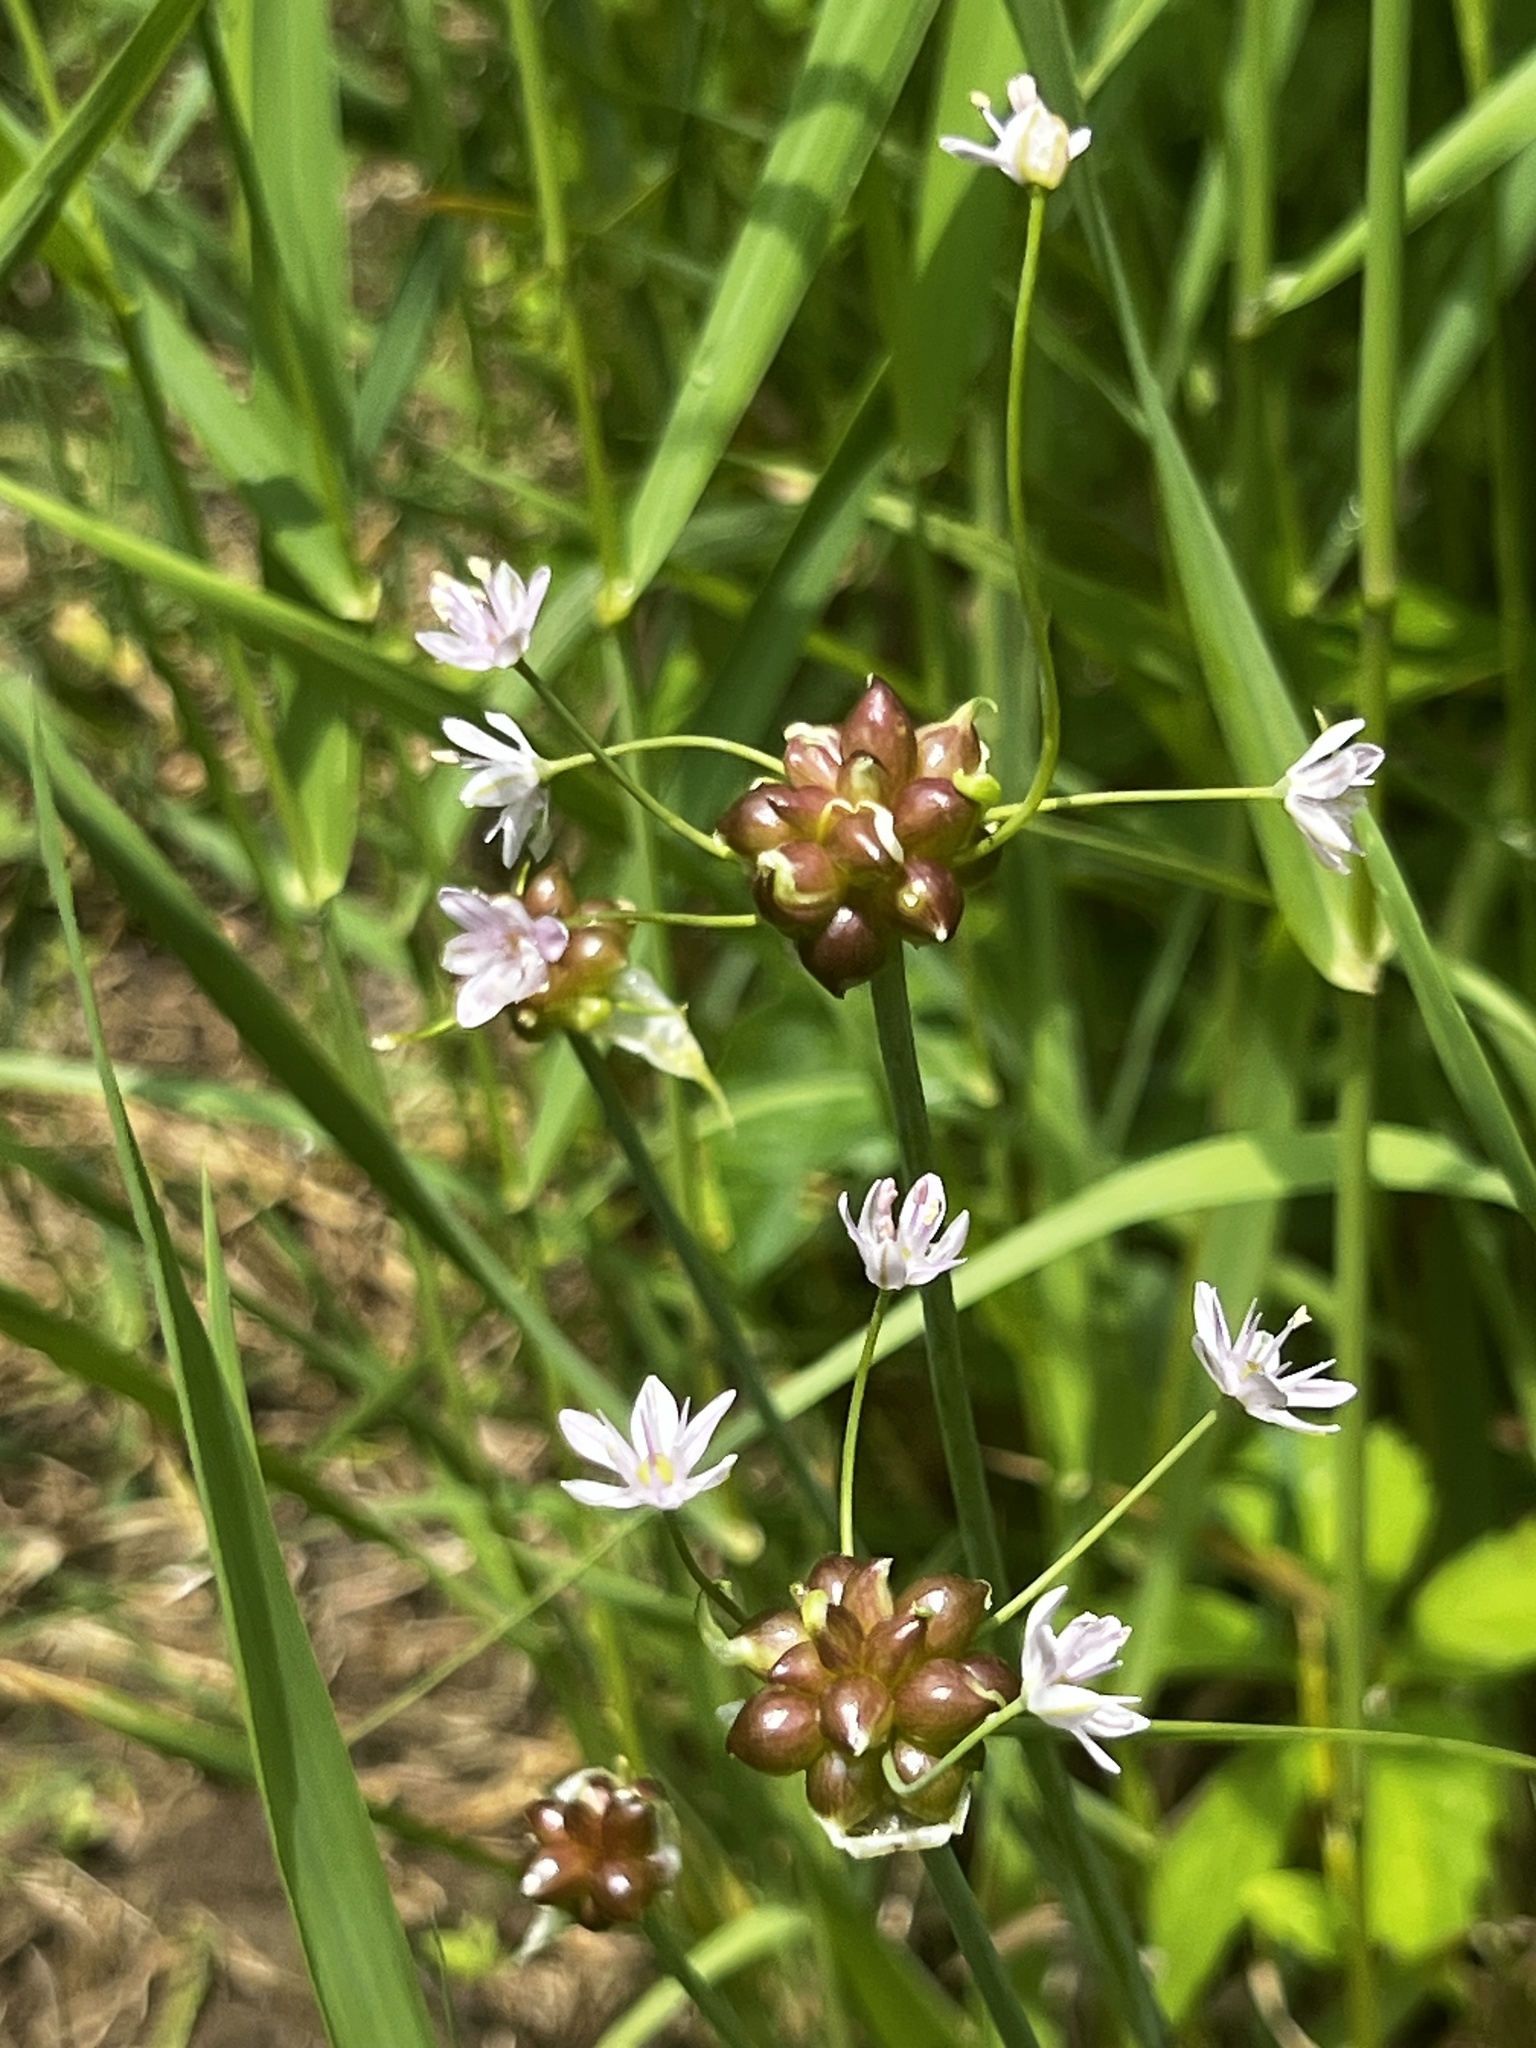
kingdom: Plantae
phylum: Tracheophyta
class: Liliopsida
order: Asparagales
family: Amaryllidaceae
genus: Allium
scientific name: Allium canadense
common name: Meadow garlic
